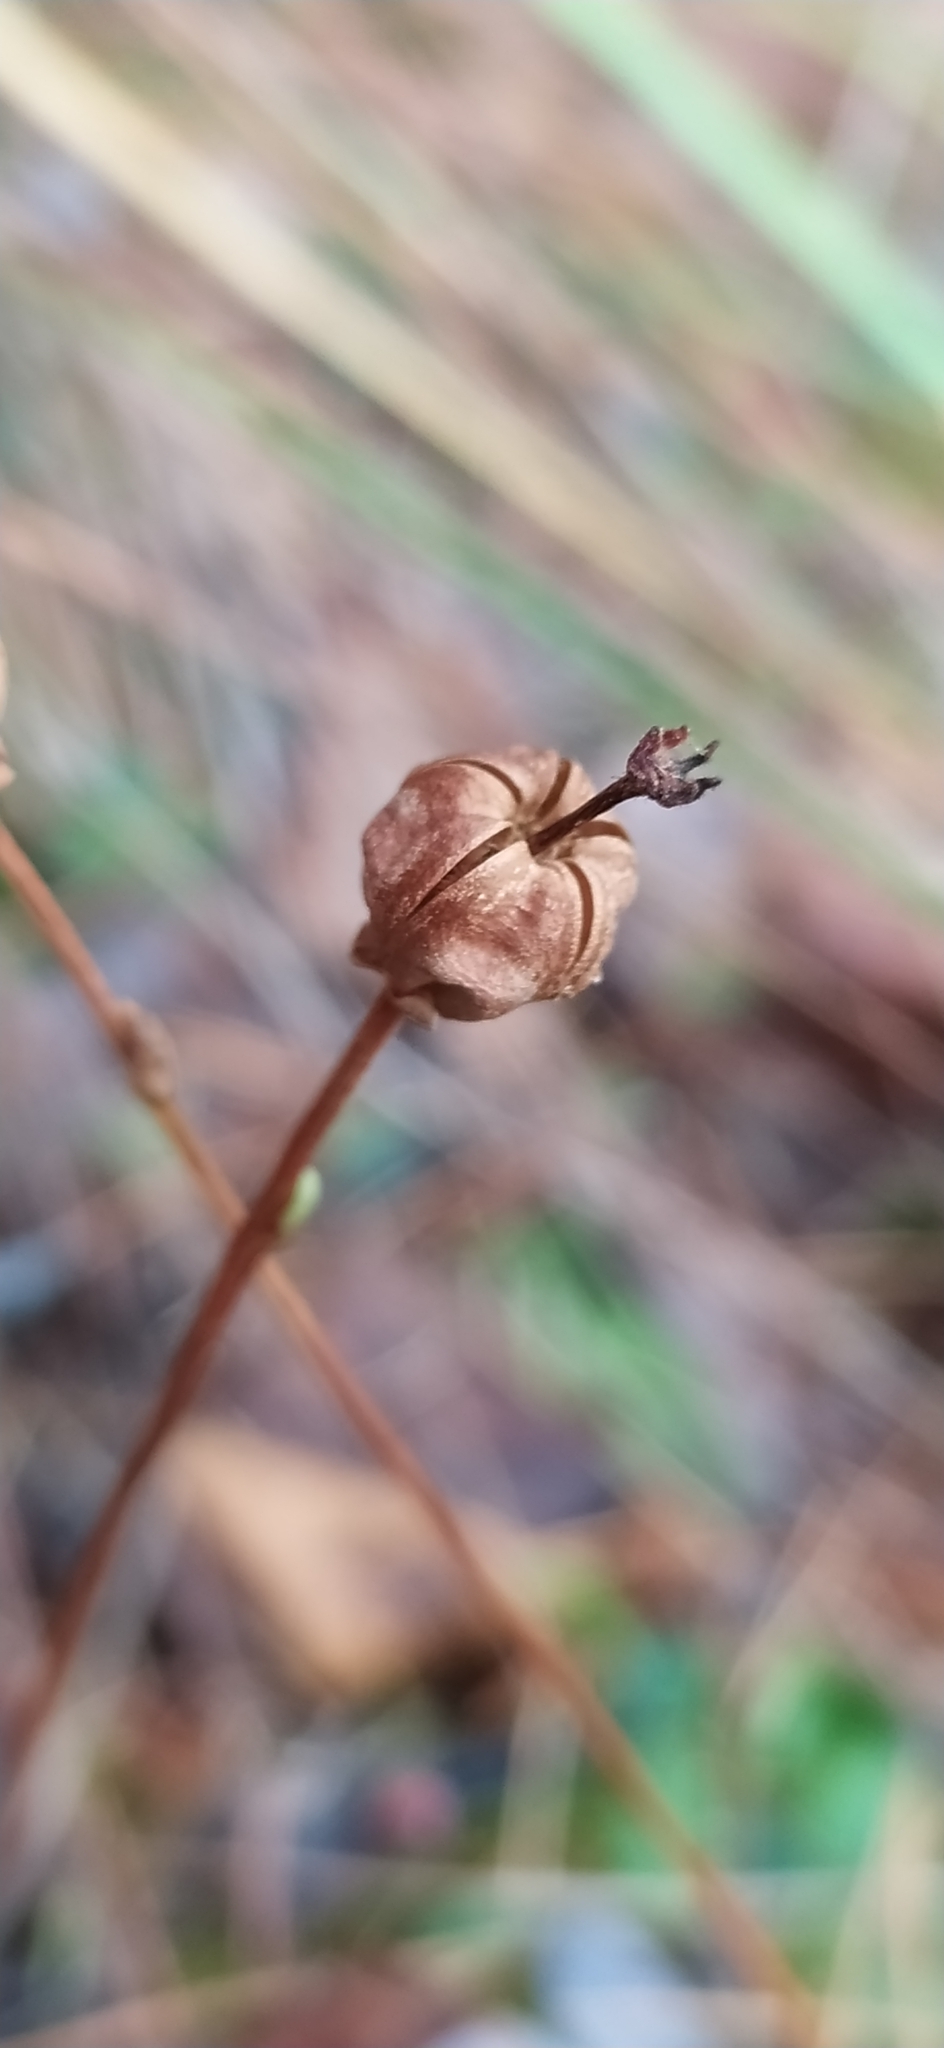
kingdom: Plantae
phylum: Tracheophyta
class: Magnoliopsida
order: Ericales
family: Ericaceae
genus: Moneses
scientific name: Moneses uniflora
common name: One-flowered wintergreen
